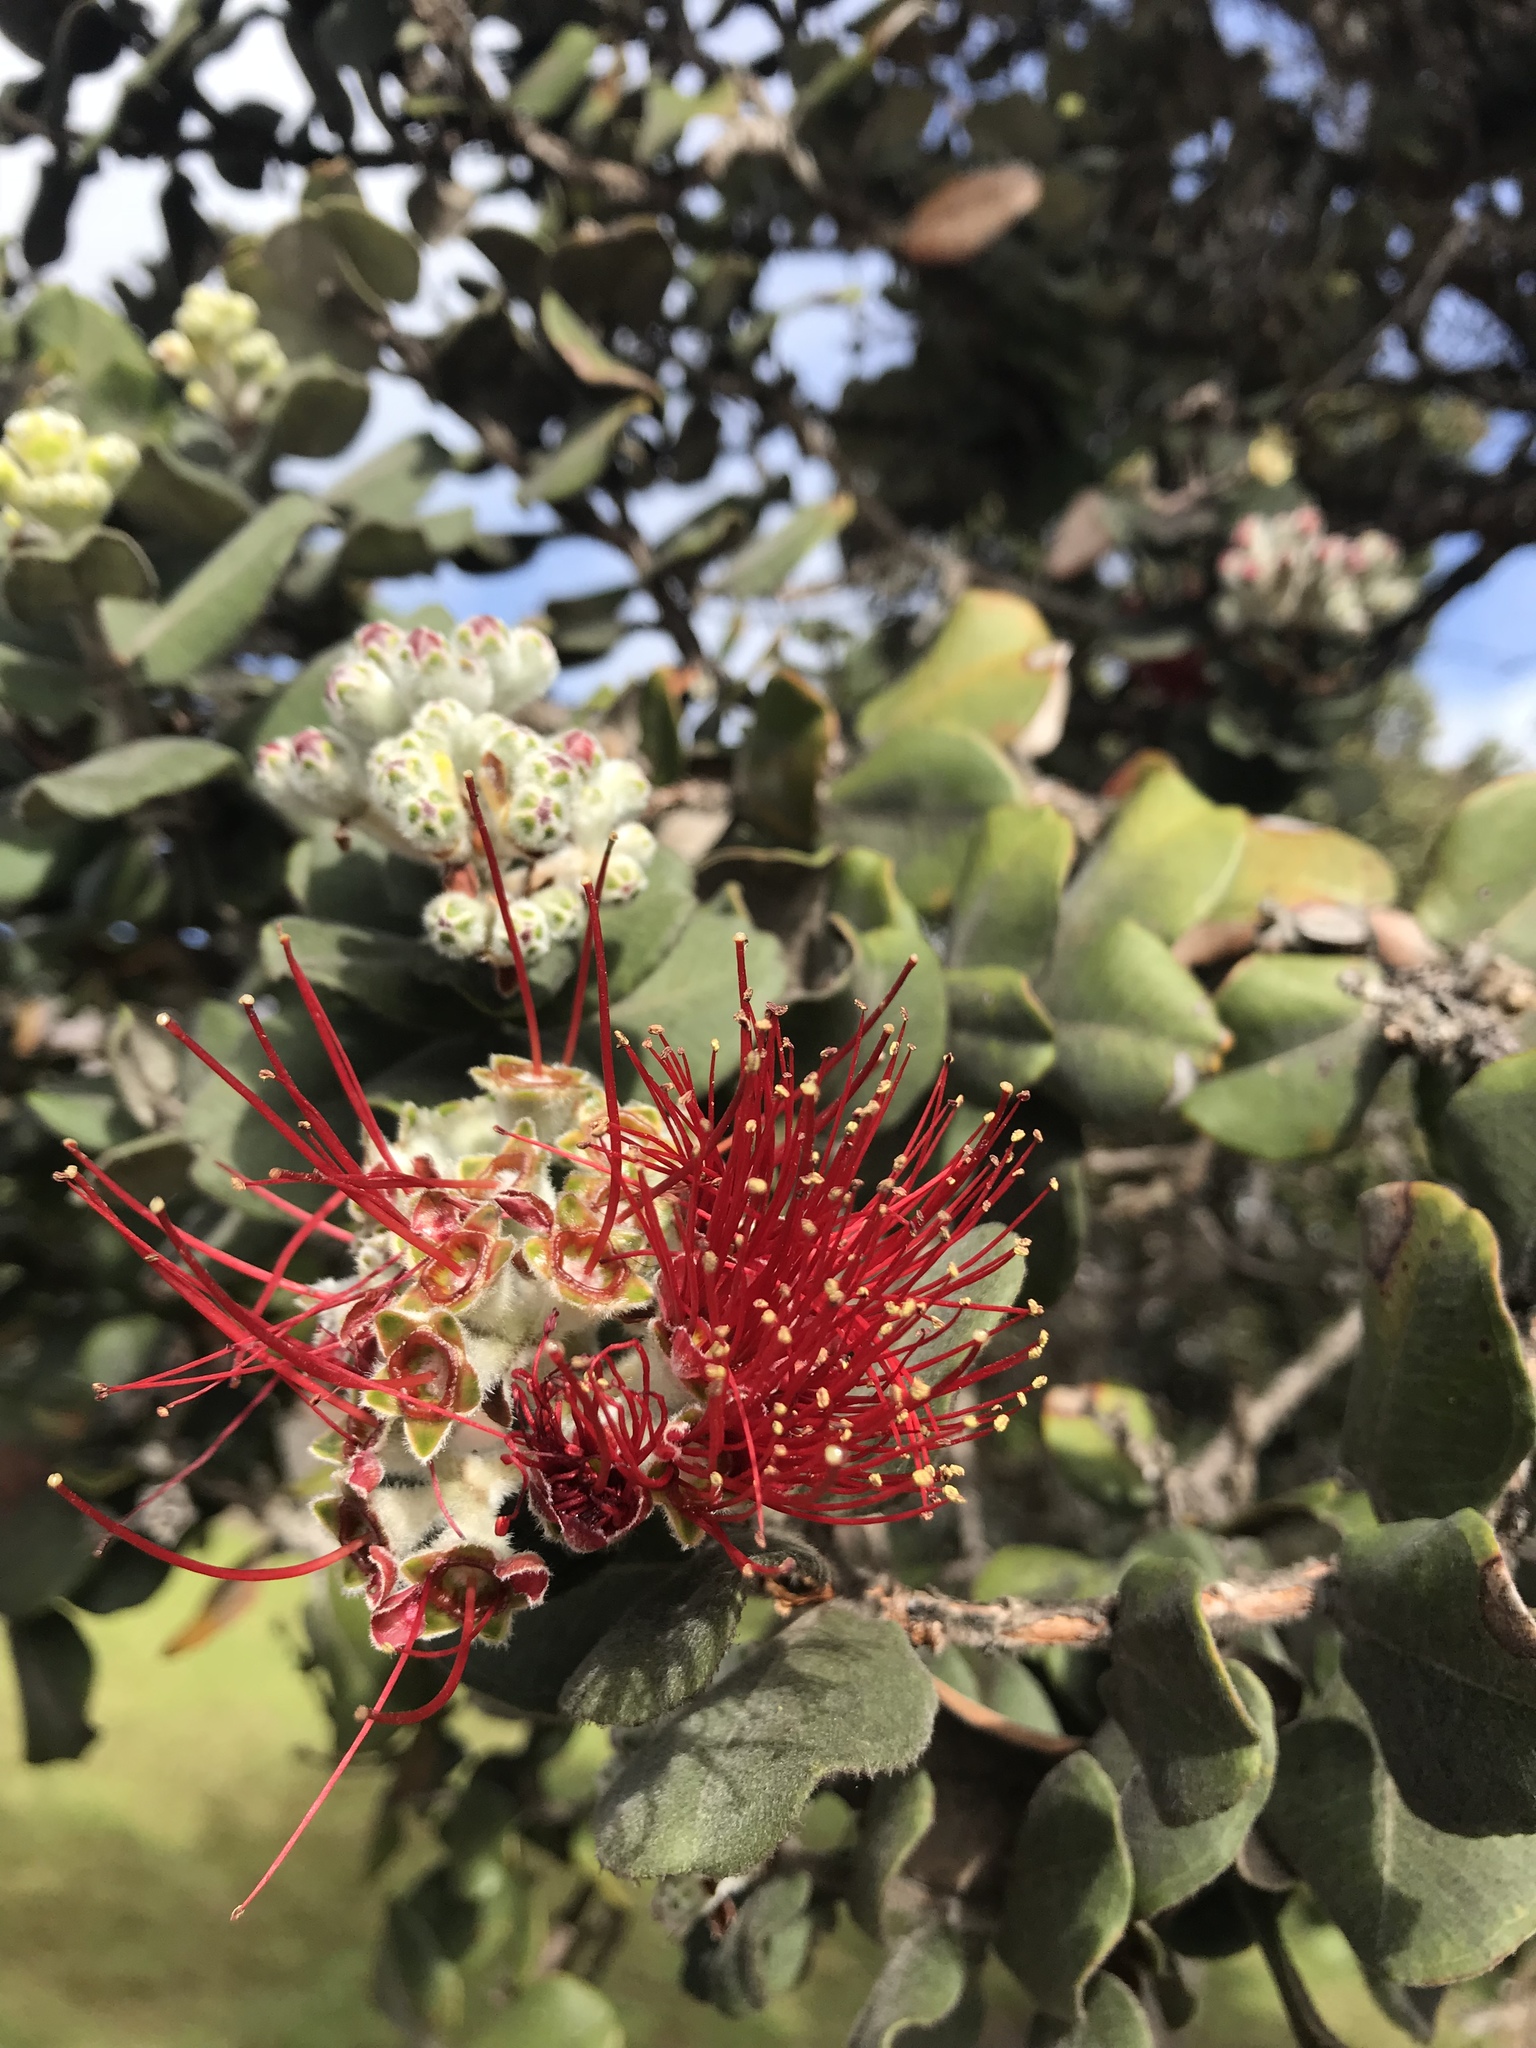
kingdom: Plantae
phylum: Tracheophyta
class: Magnoliopsida
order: Myrtales
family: Myrtaceae
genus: Metrosideros
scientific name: Metrosideros polymorpha
